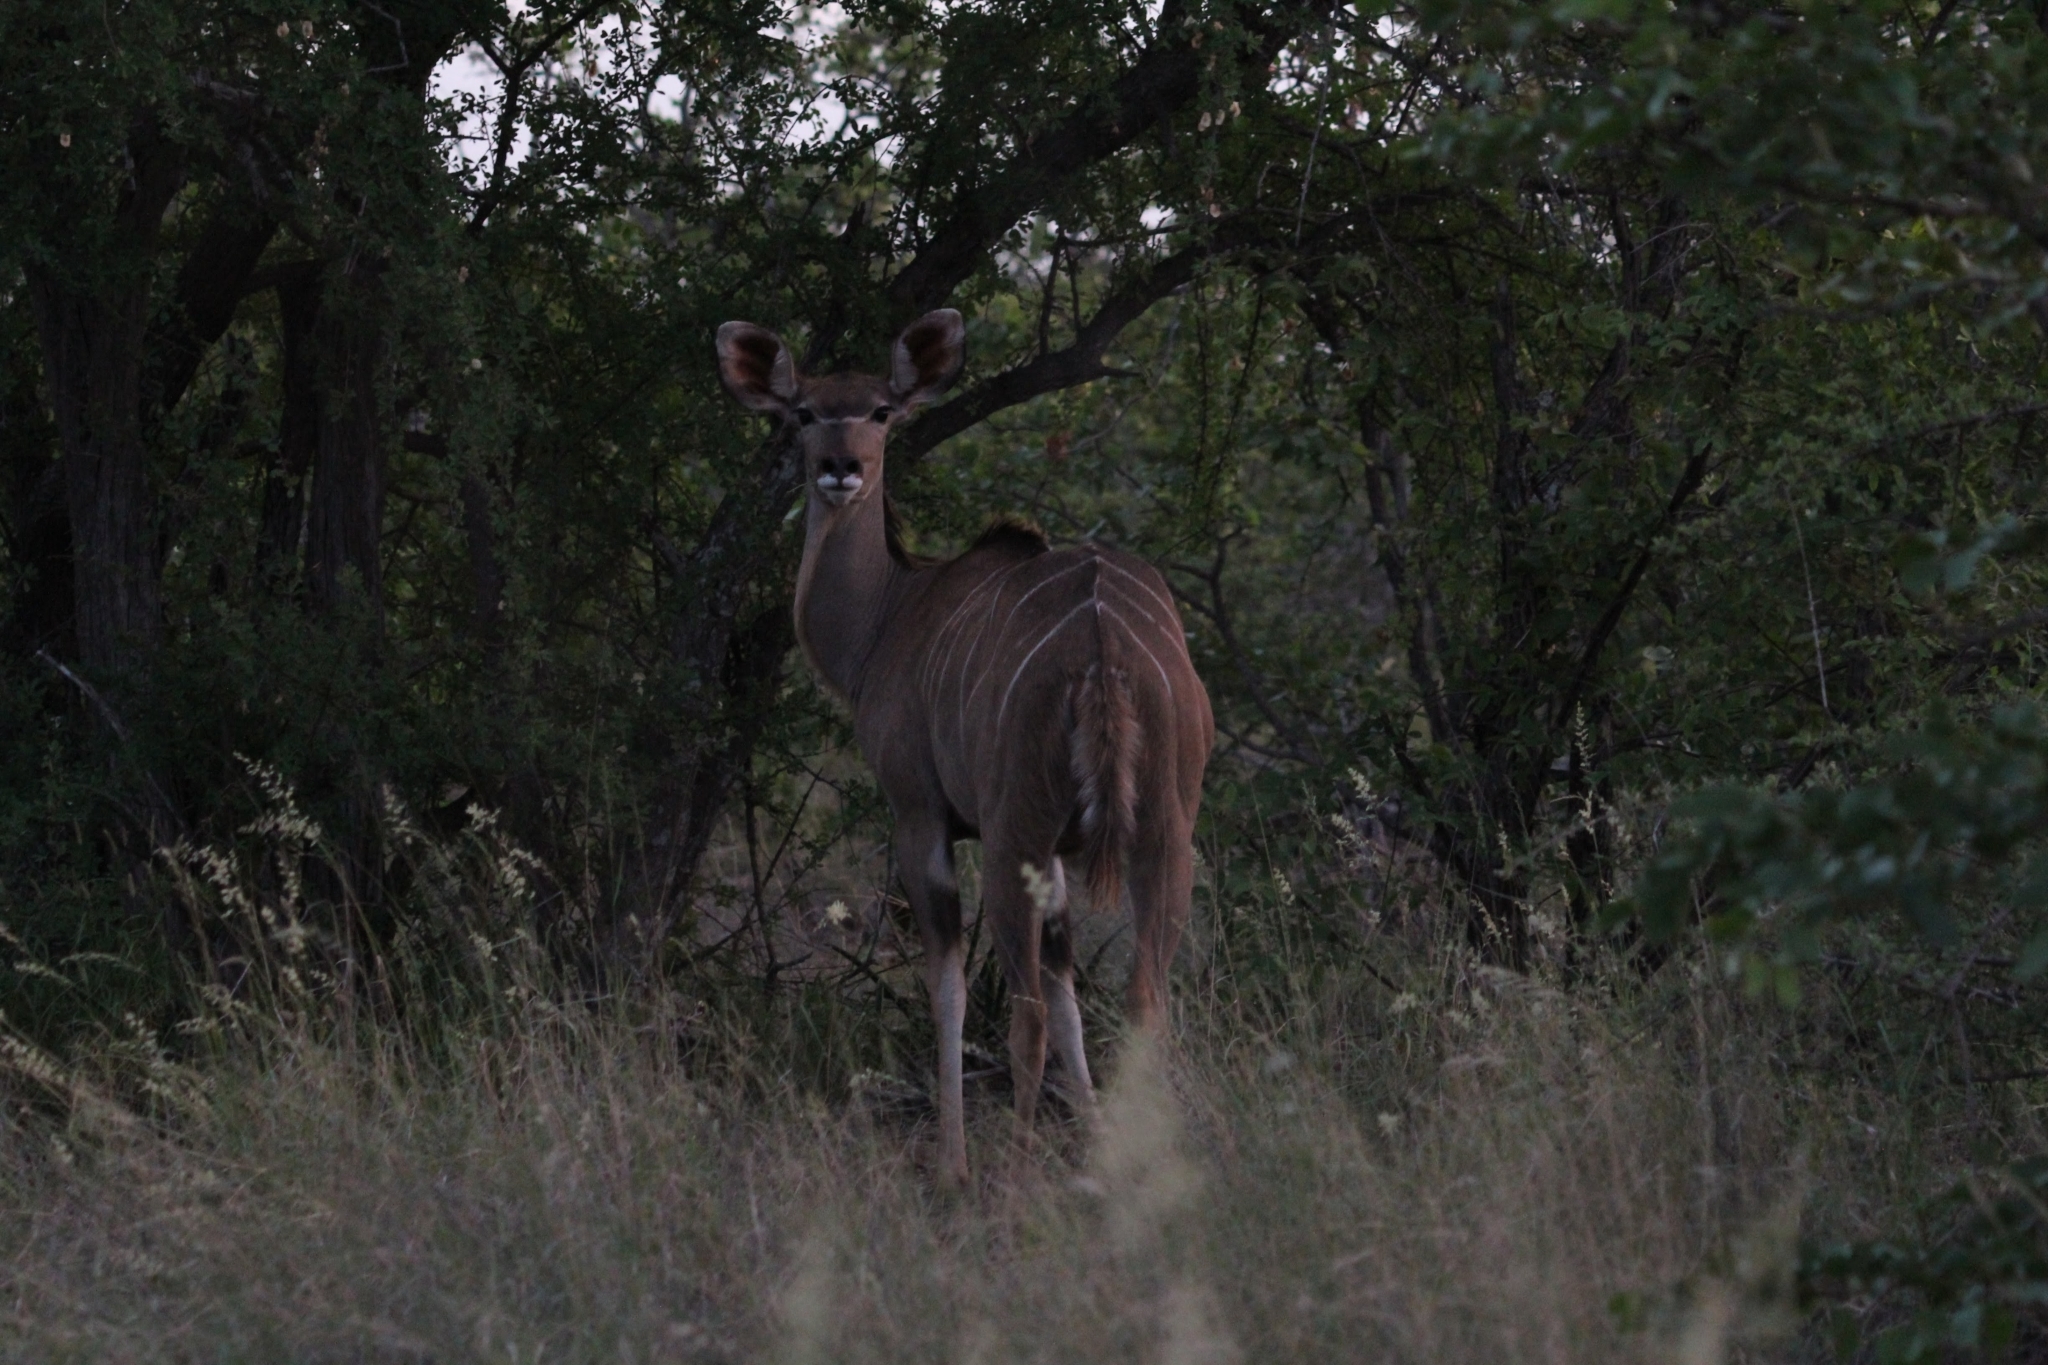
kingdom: Animalia
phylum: Chordata
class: Mammalia
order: Artiodactyla
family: Bovidae
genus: Tragelaphus
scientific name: Tragelaphus strepsiceros
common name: Greater kudu
